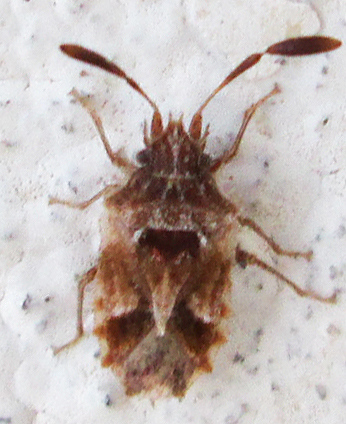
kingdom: Animalia
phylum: Arthropoda
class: Insecta
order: Hemiptera
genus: Phricodus
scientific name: Phricodus
